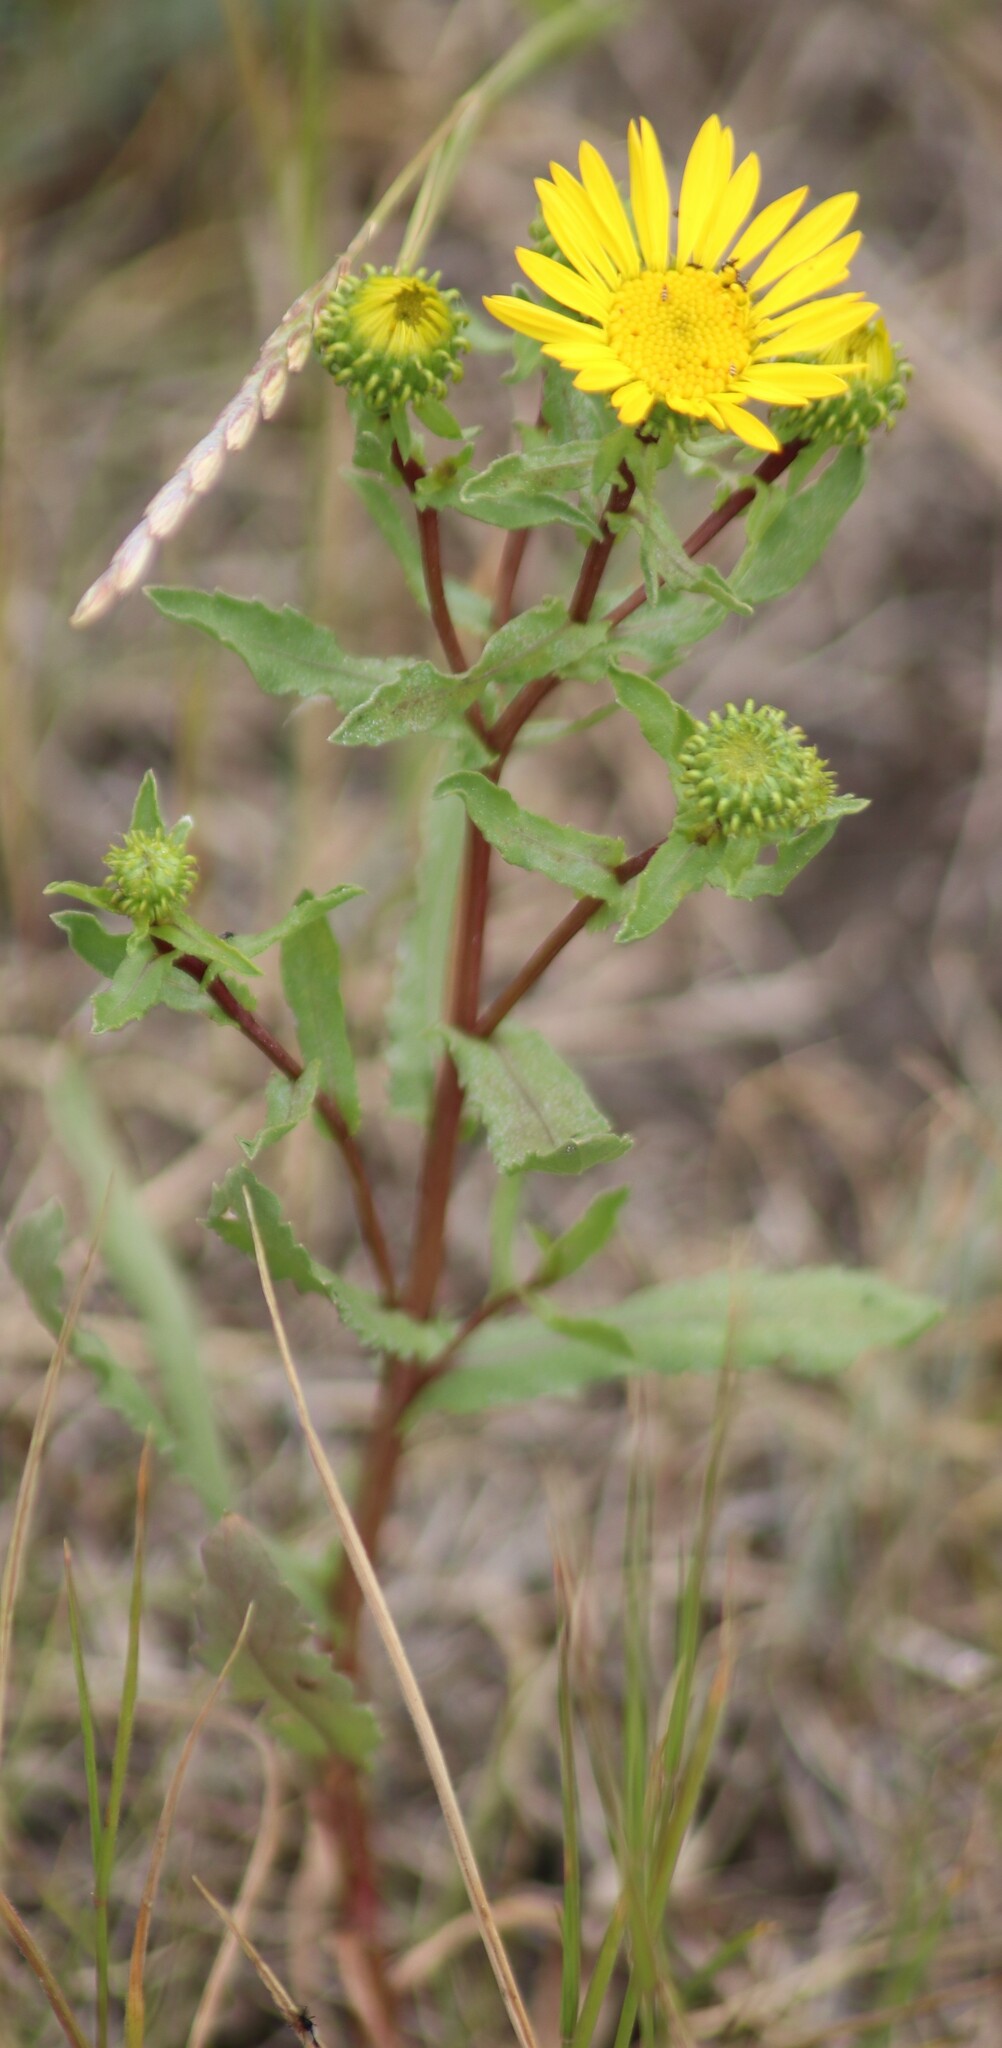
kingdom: Plantae
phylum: Tracheophyta
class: Magnoliopsida
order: Asterales
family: Asteraceae
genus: Grindelia
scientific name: Grindelia squarrosa
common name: Curly-cup gumweed
